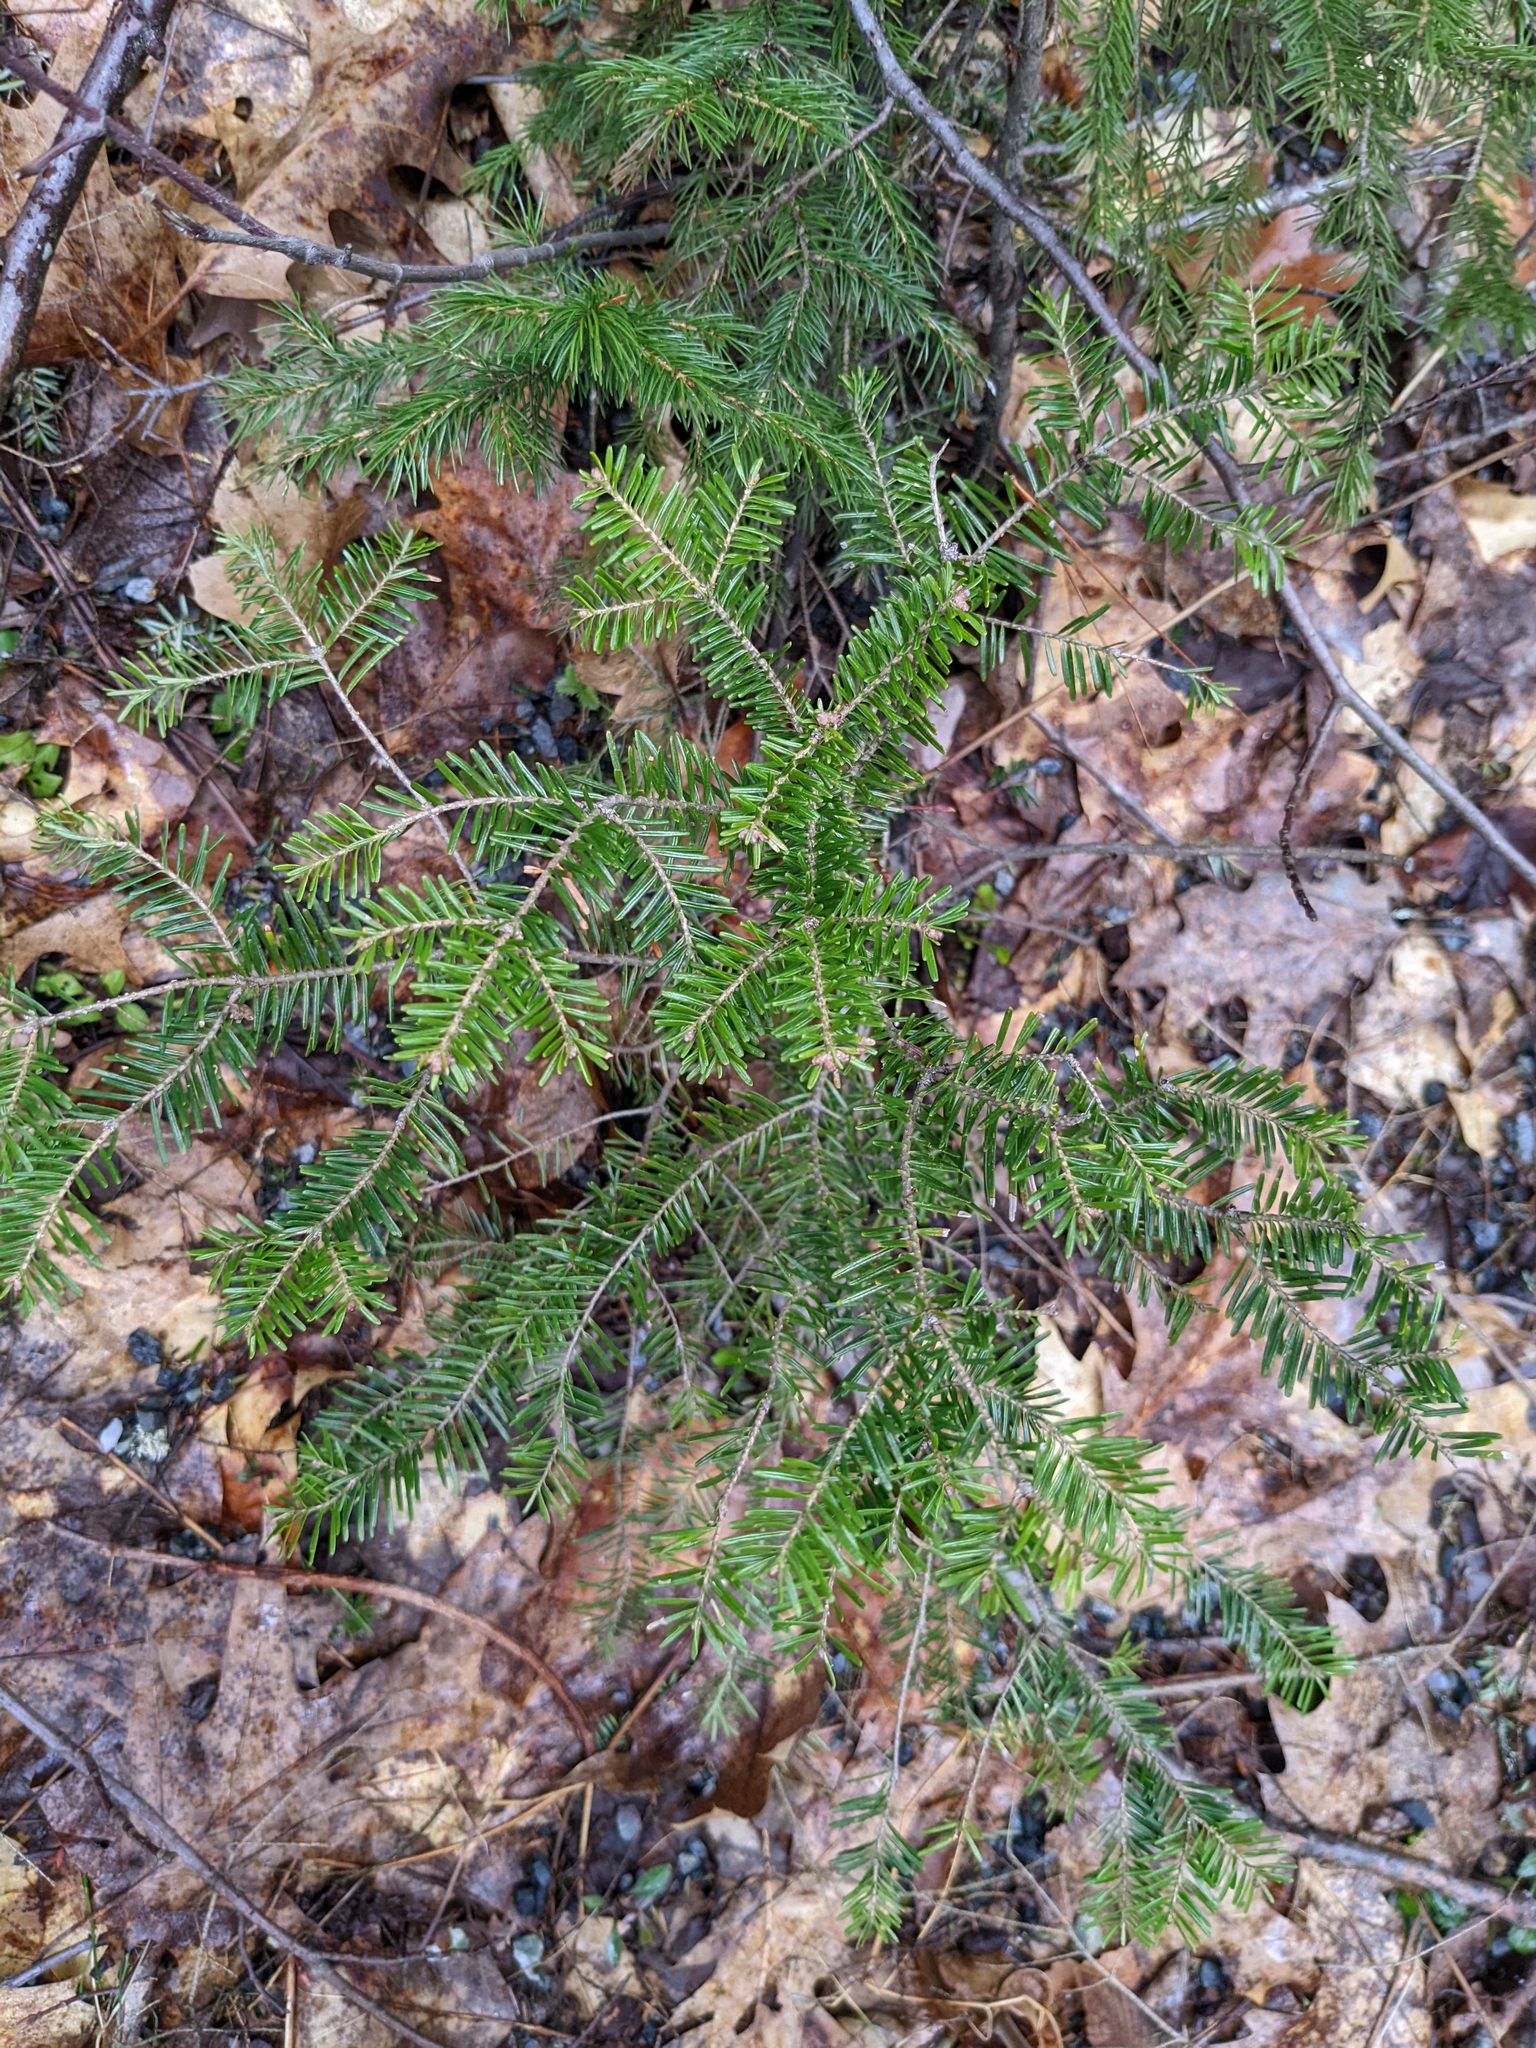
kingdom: Plantae
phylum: Tracheophyta
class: Pinopsida
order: Pinales
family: Pinaceae
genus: Abies
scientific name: Abies balsamea
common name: Balsam fir
